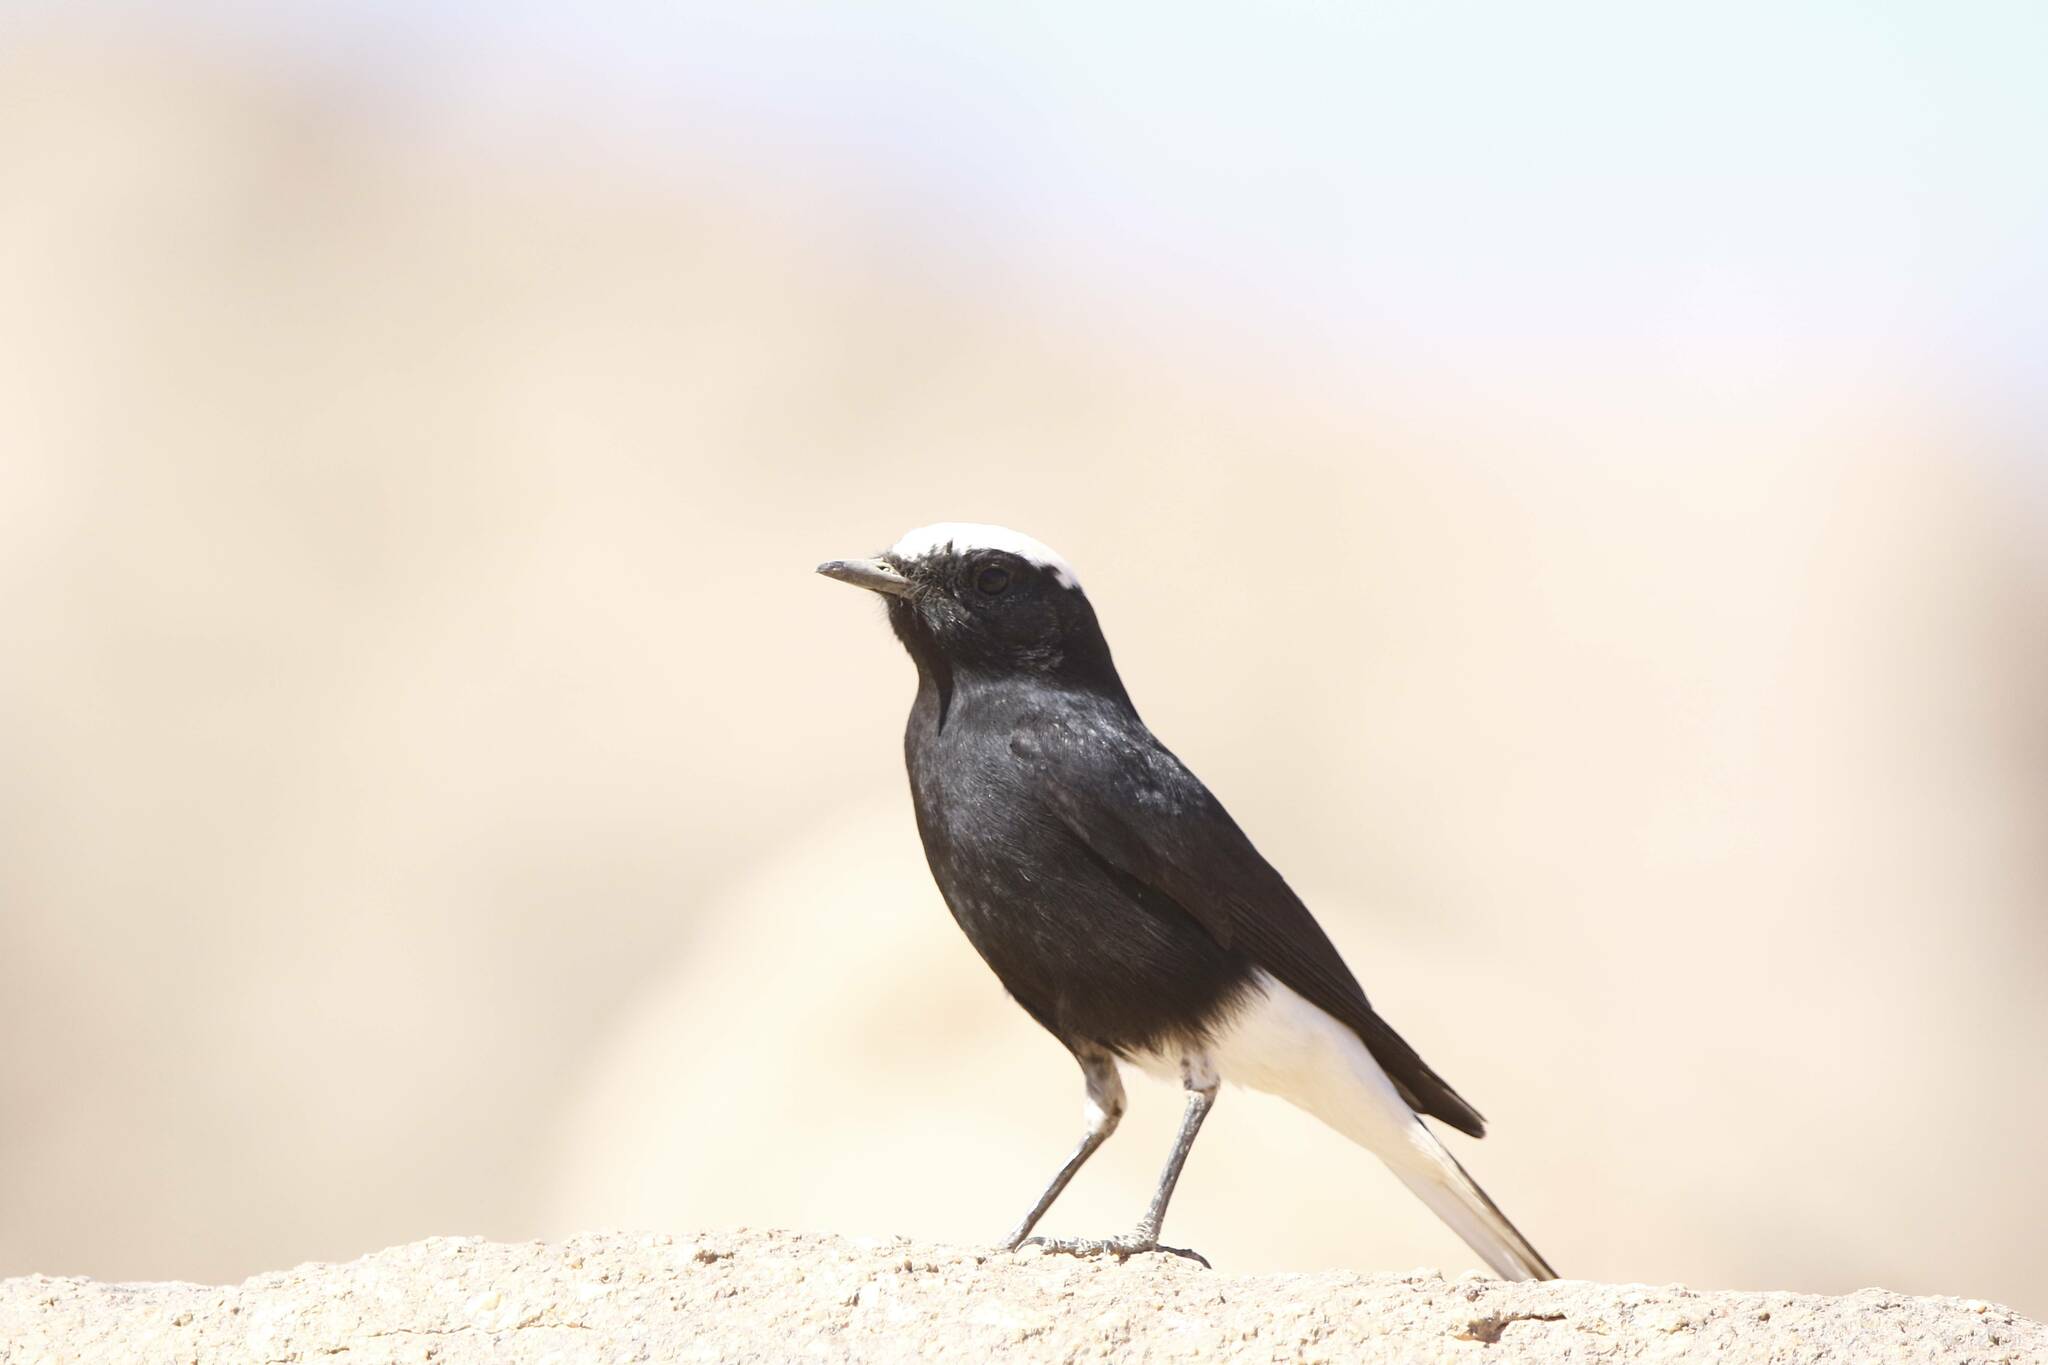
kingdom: Animalia
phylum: Chordata
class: Aves
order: Passeriformes
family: Muscicapidae
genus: Oenanthe
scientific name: Oenanthe leucopyga
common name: White-crowned wheatear
